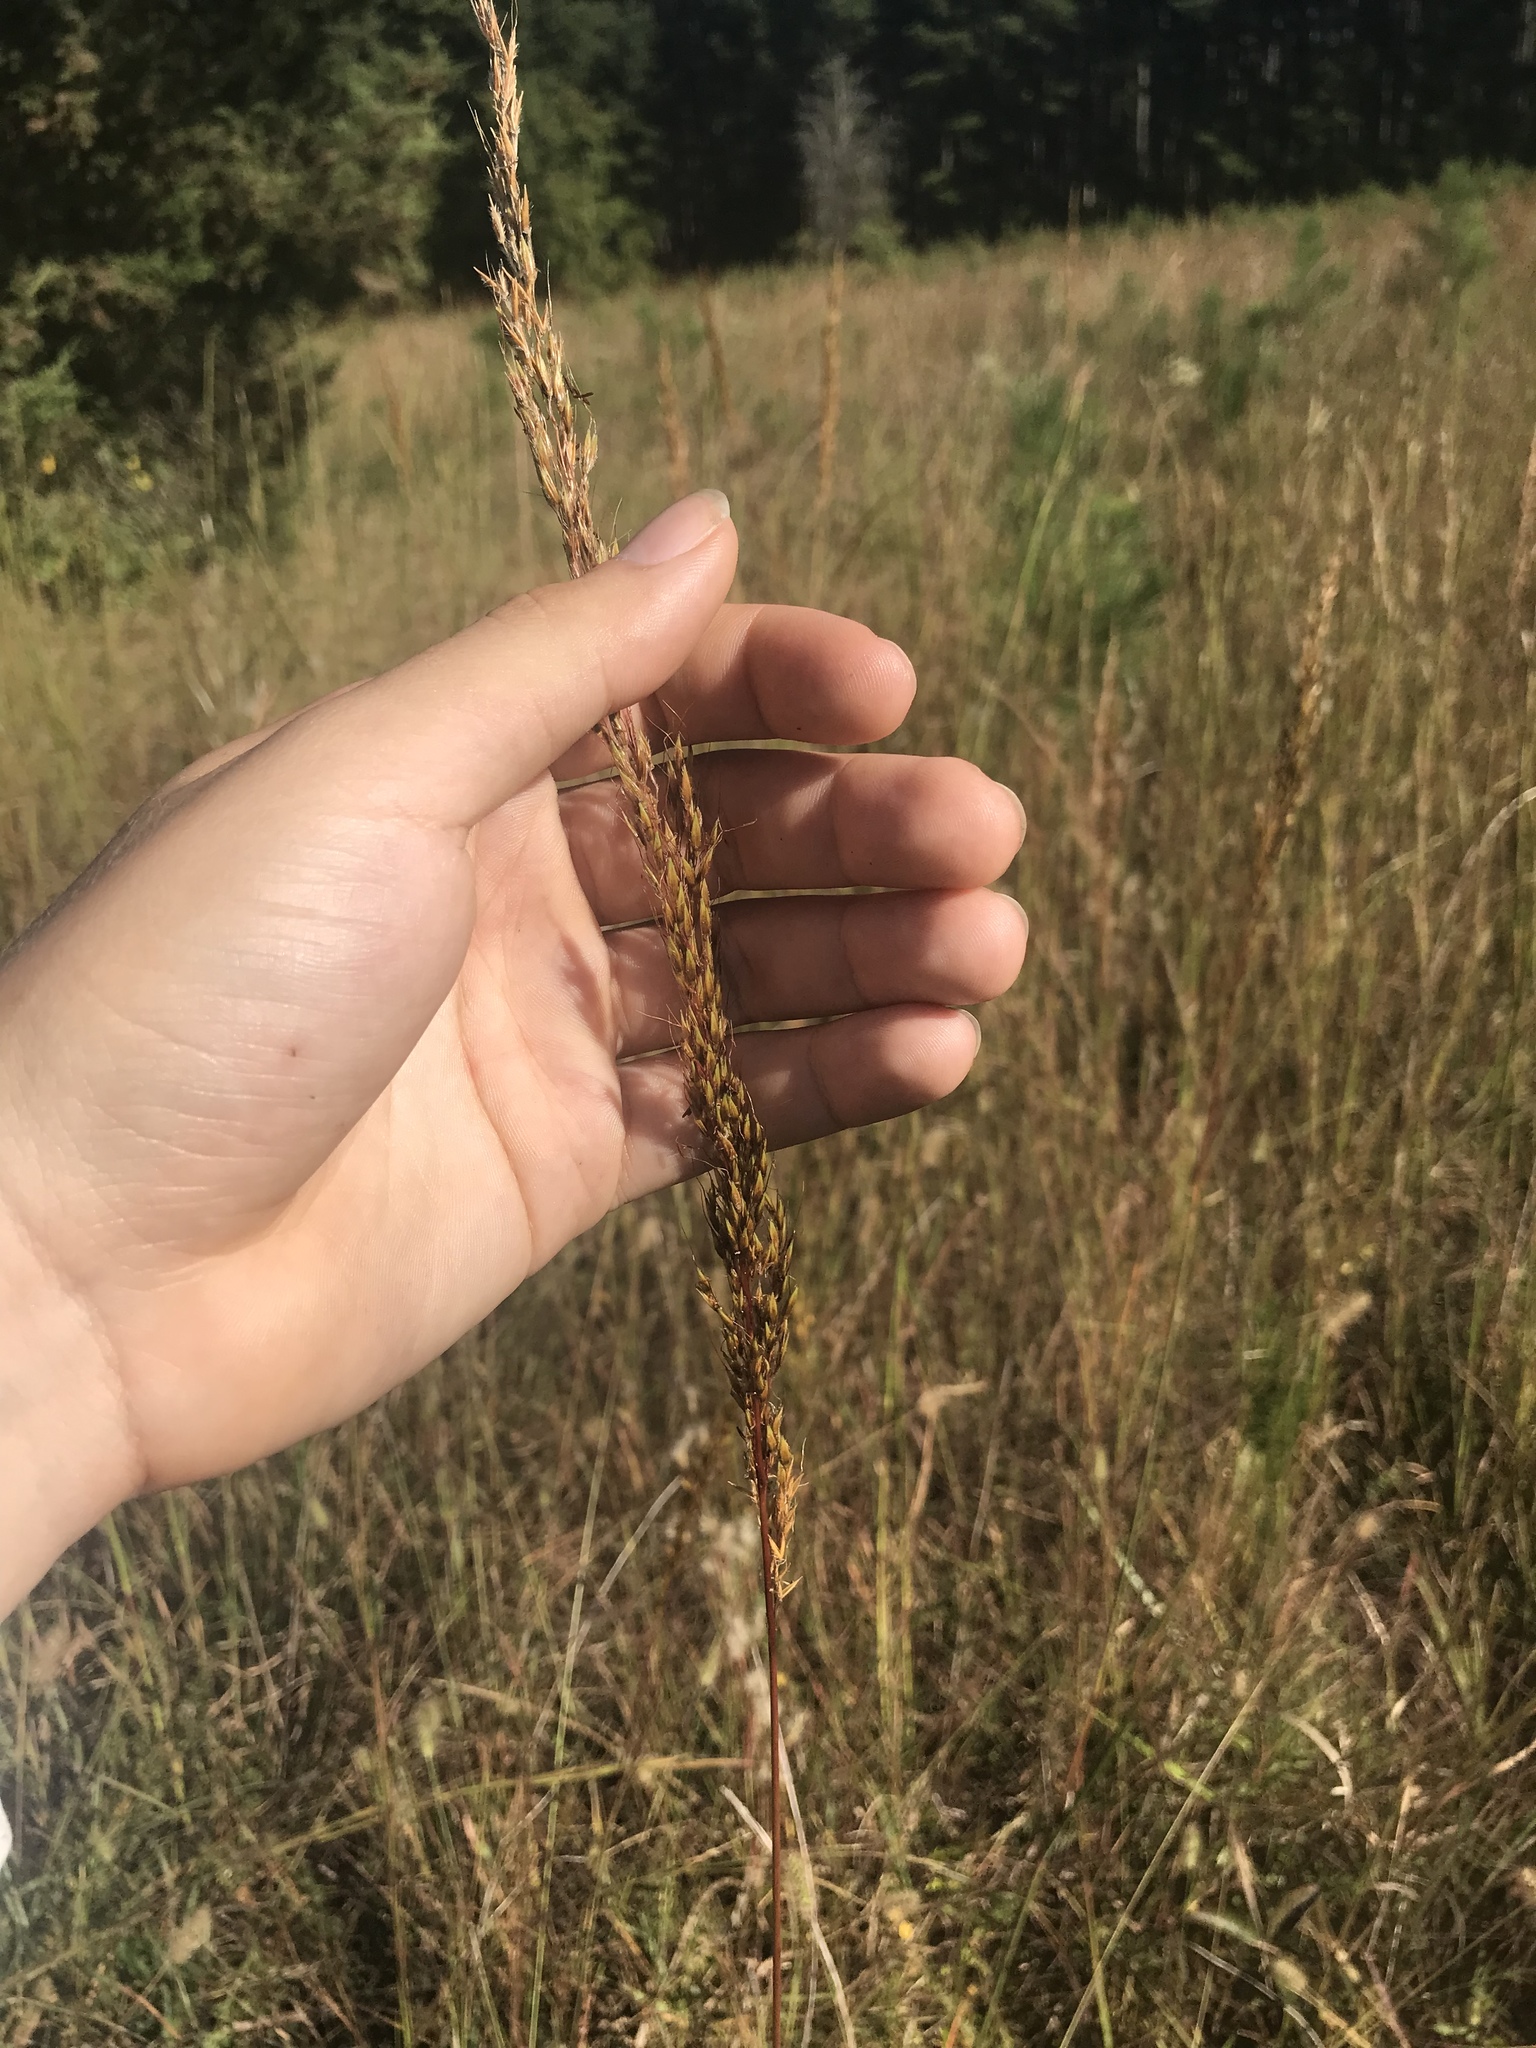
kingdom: Plantae
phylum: Tracheophyta
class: Liliopsida
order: Poales
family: Poaceae
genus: Sorghastrum
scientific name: Sorghastrum nutans
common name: Indian grass
